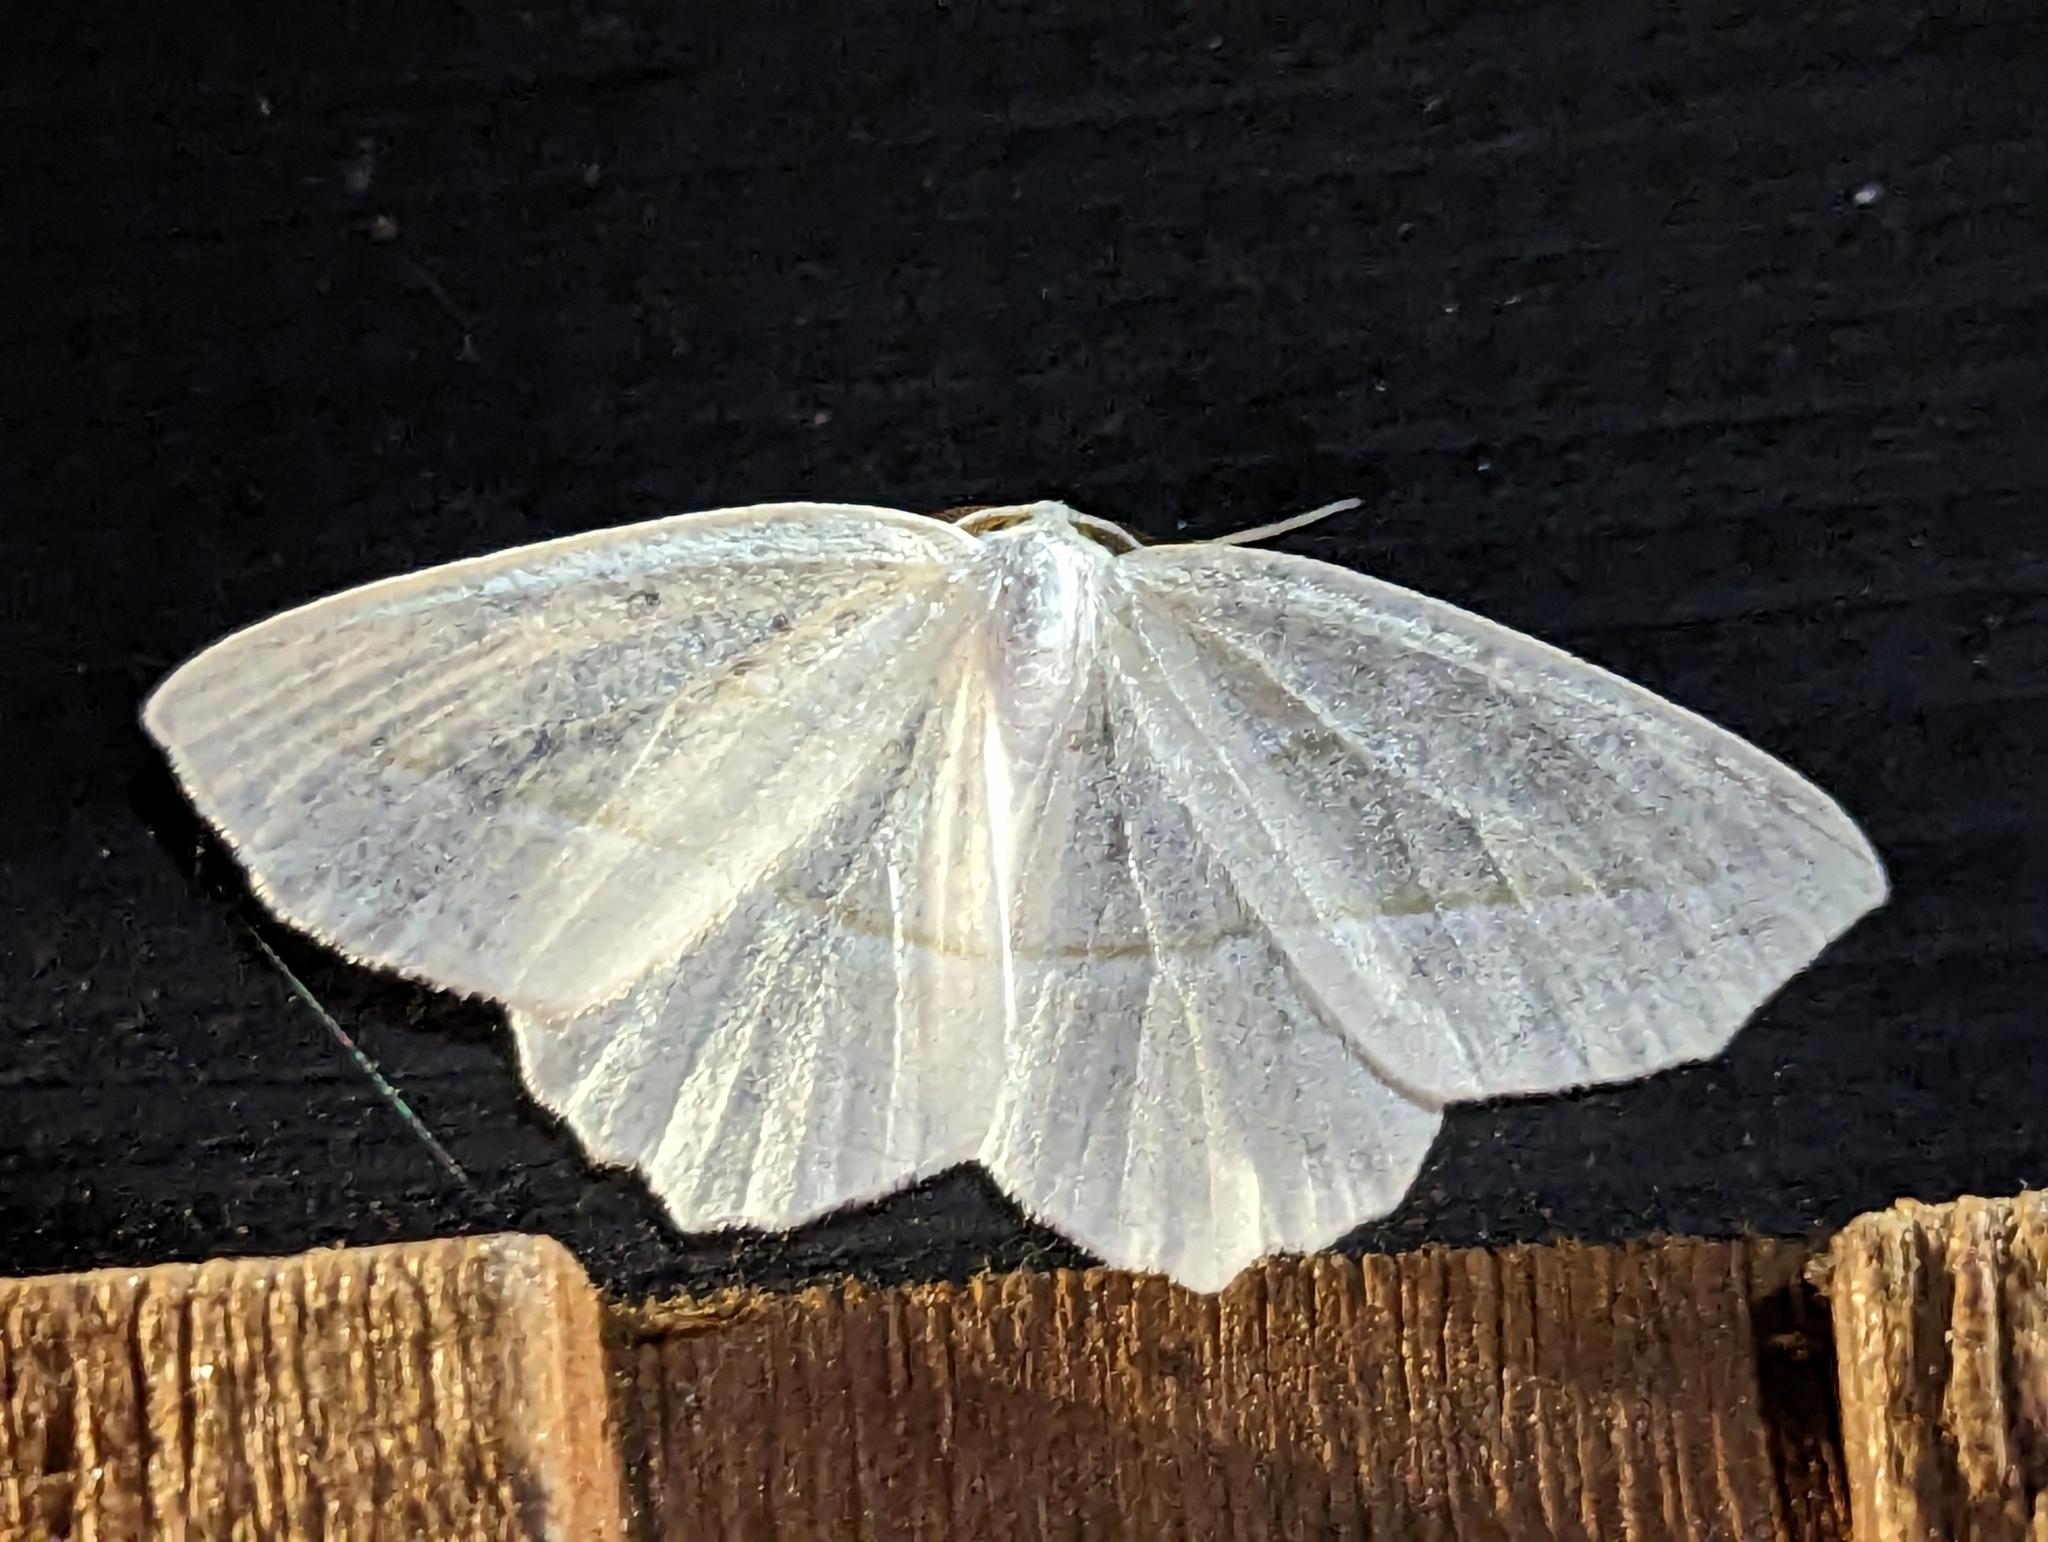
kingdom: Animalia
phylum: Arthropoda
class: Insecta
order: Lepidoptera
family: Geometridae
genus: Campaea
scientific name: Campaea perlata
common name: Fringed looper
